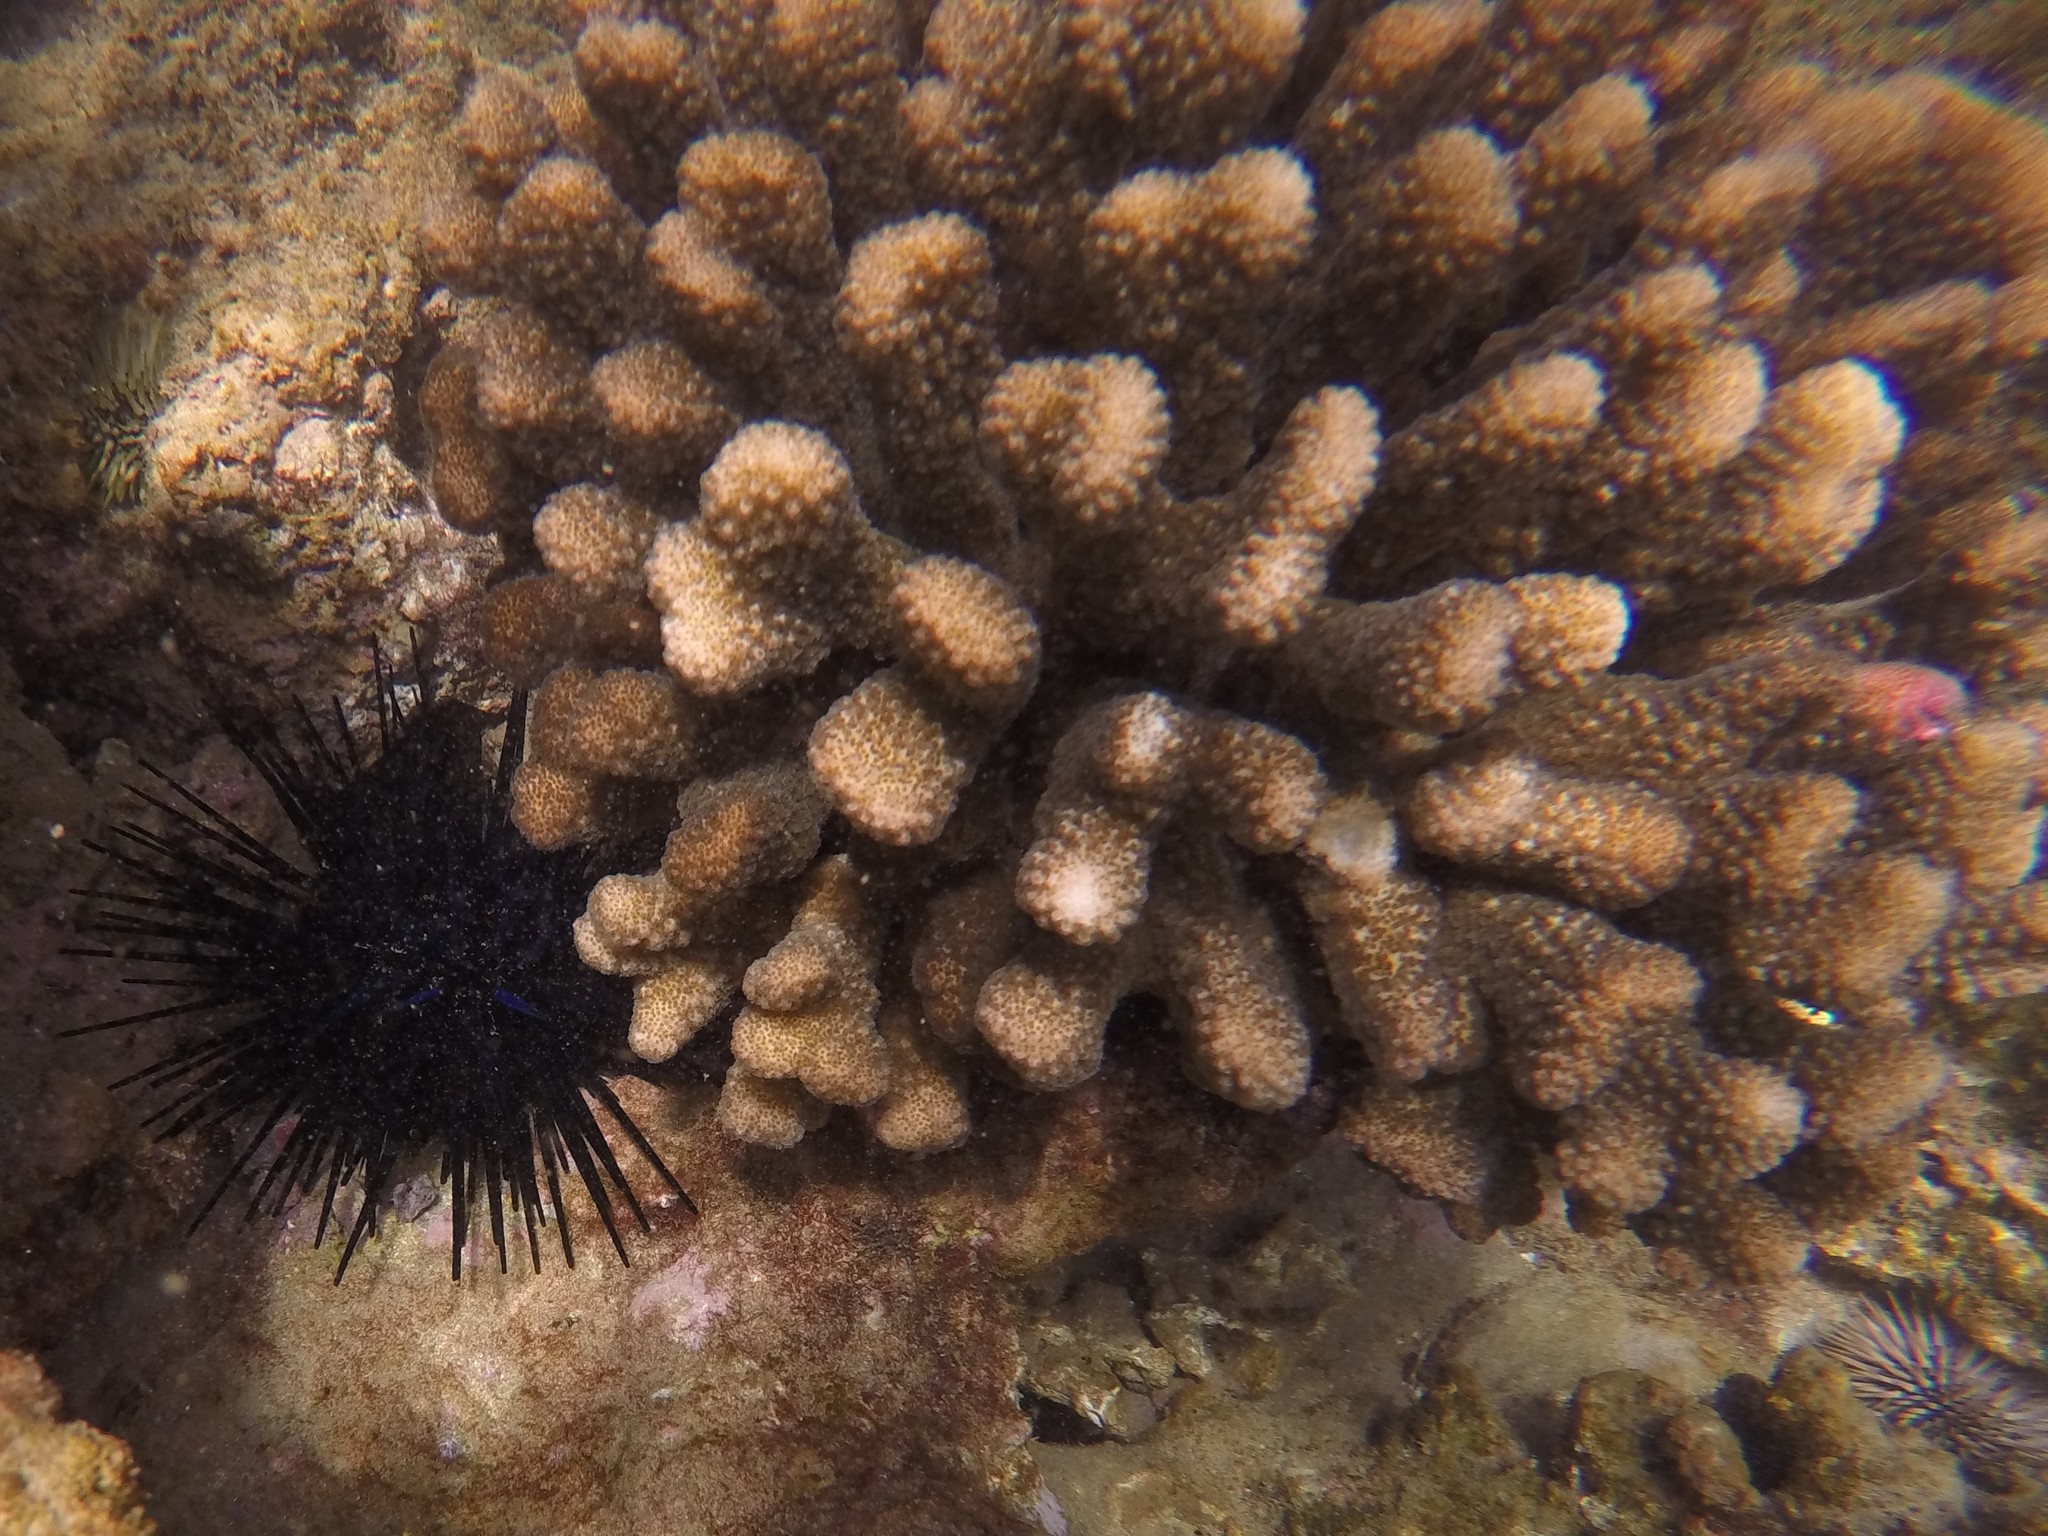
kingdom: Animalia
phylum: Echinodermata
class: Echinoidea
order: Diadematoida
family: Diadematidae
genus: Echinothrix
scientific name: Echinothrix diadema
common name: Schwarzer diademseeigel
